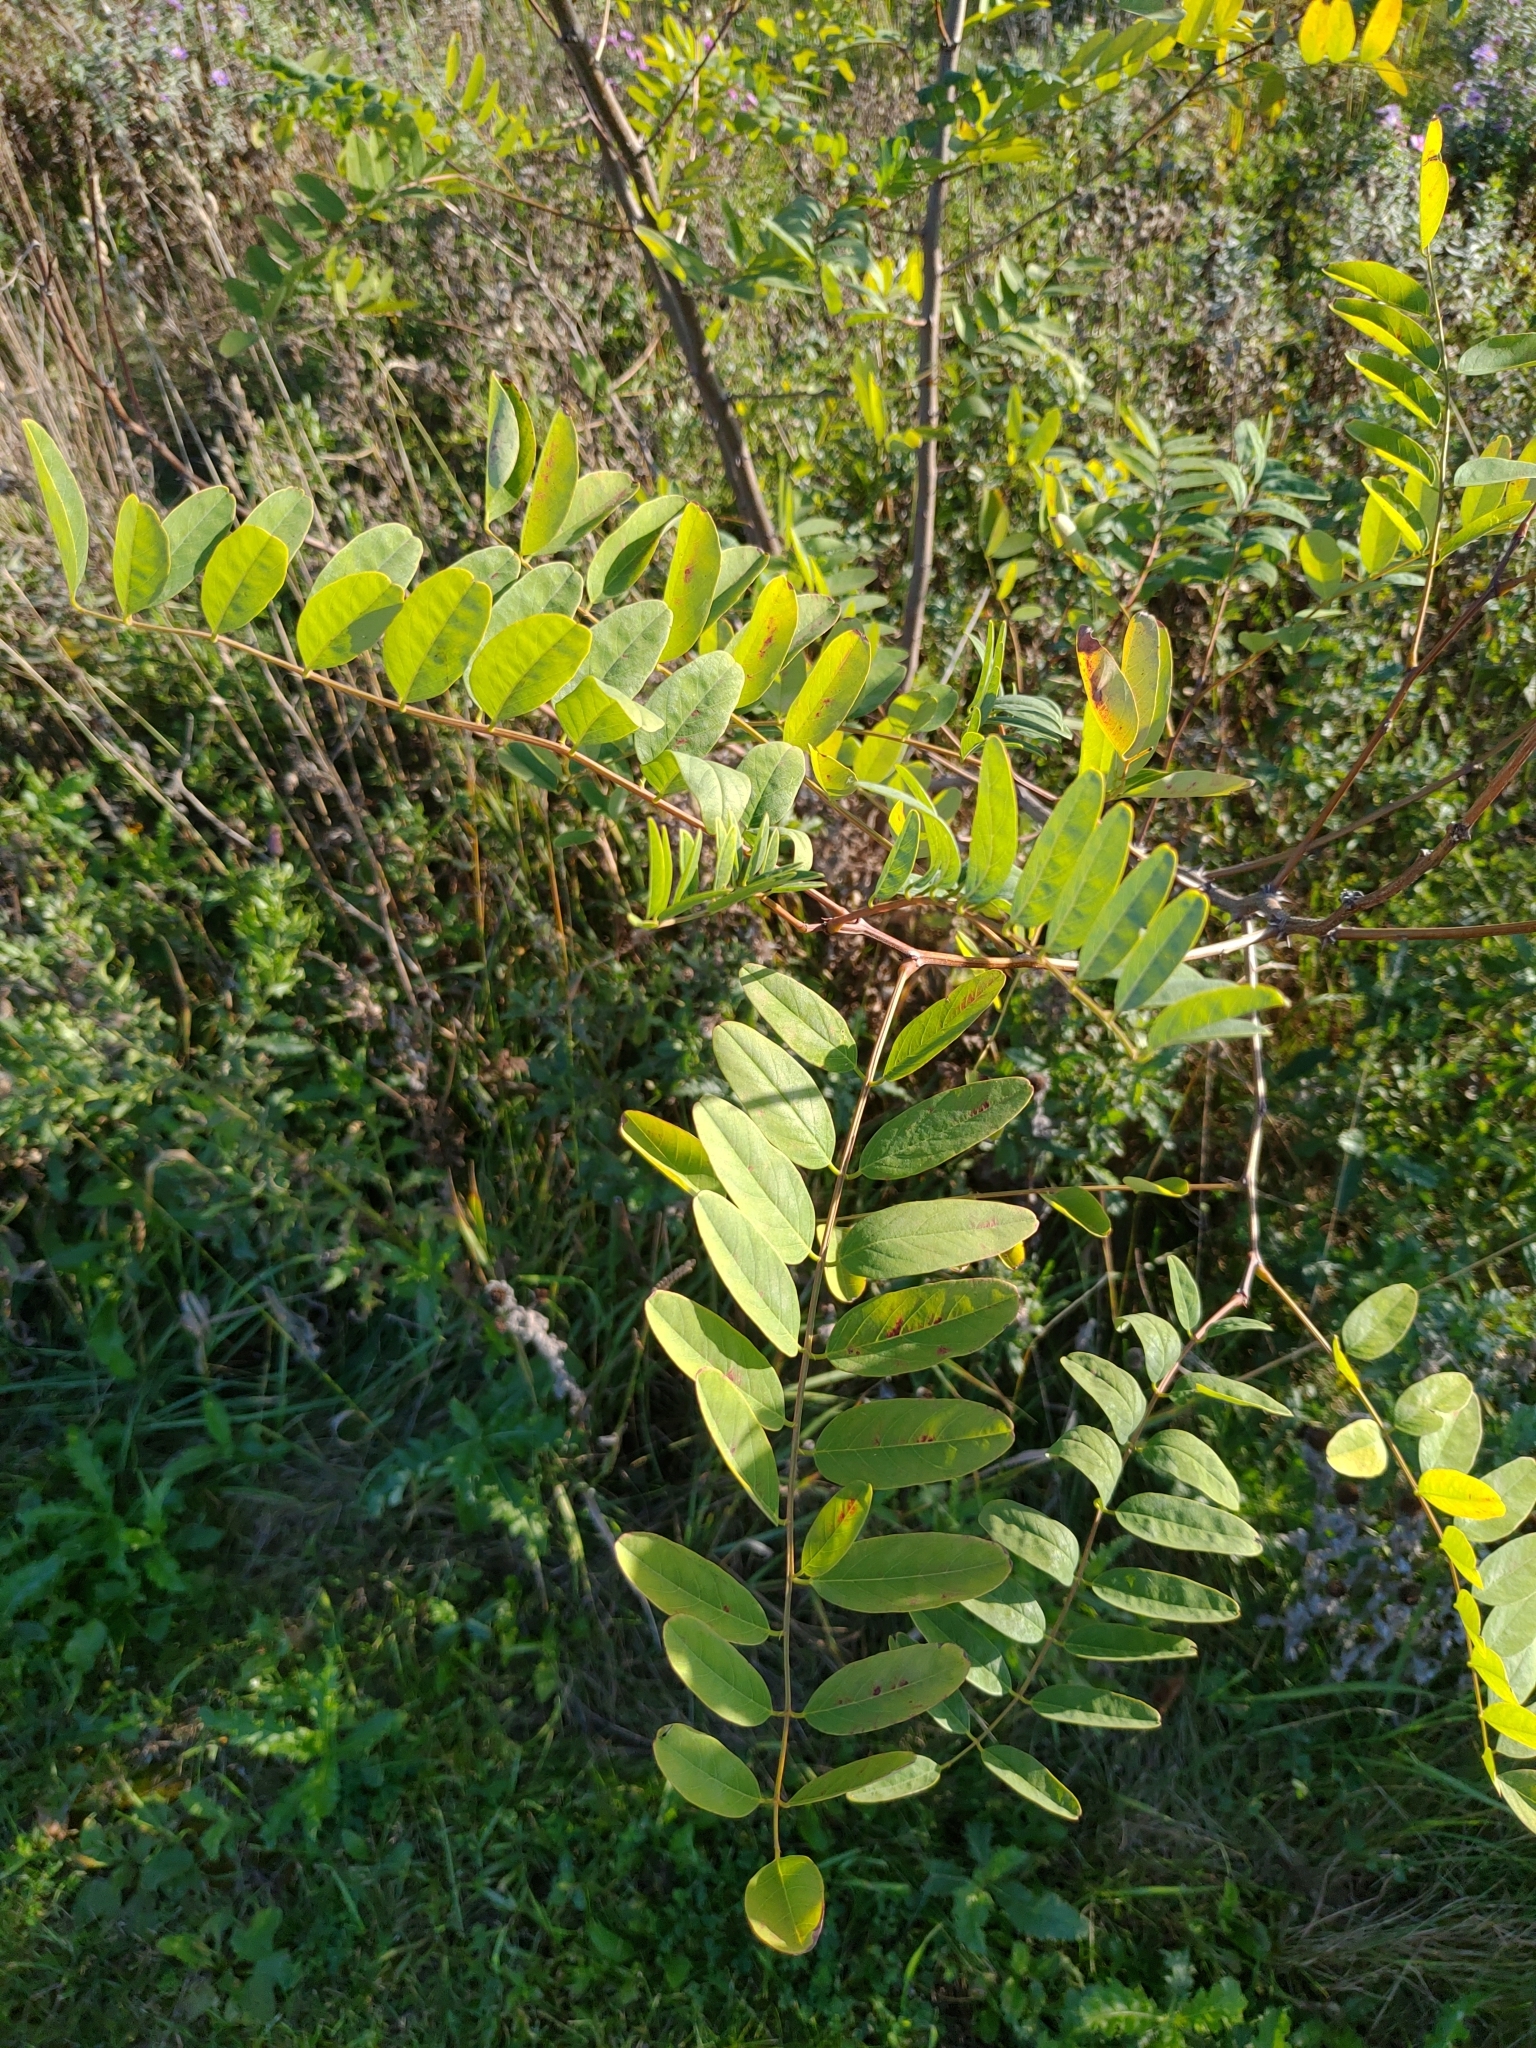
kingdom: Plantae
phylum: Tracheophyta
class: Magnoliopsida
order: Fabales
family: Fabaceae
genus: Robinia
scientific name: Robinia pseudoacacia
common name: Black locust
